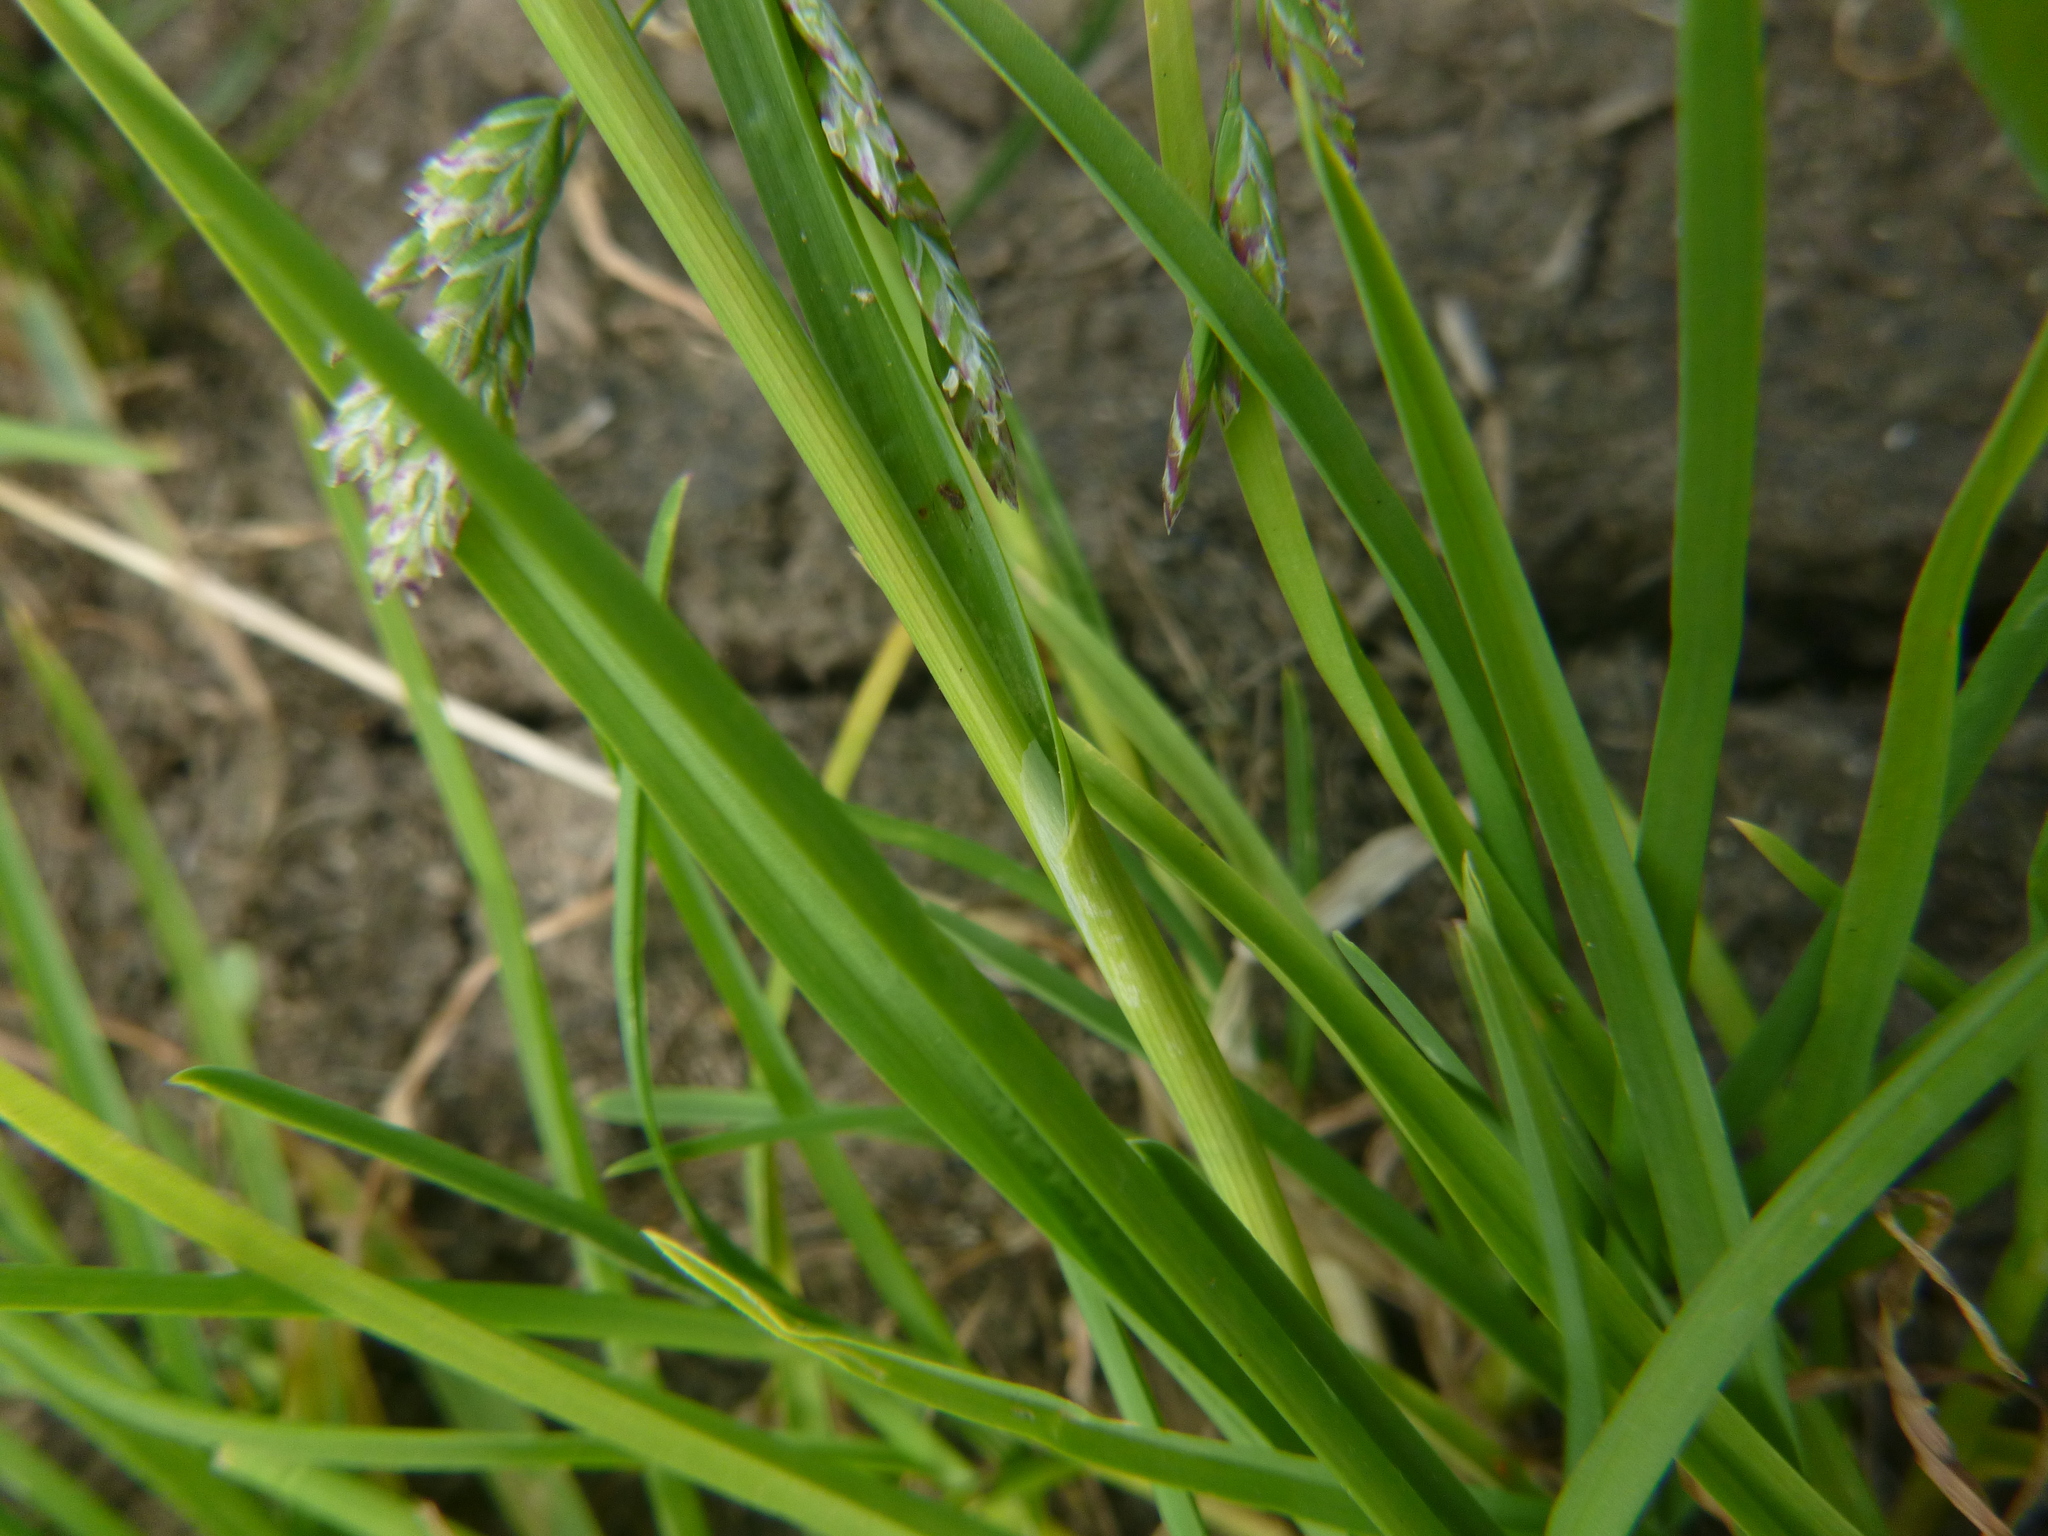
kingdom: Plantae
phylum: Tracheophyta
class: Liliopsida
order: Poales
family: Poaceae
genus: Poa
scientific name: Poa annua
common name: Annual bluegrass
